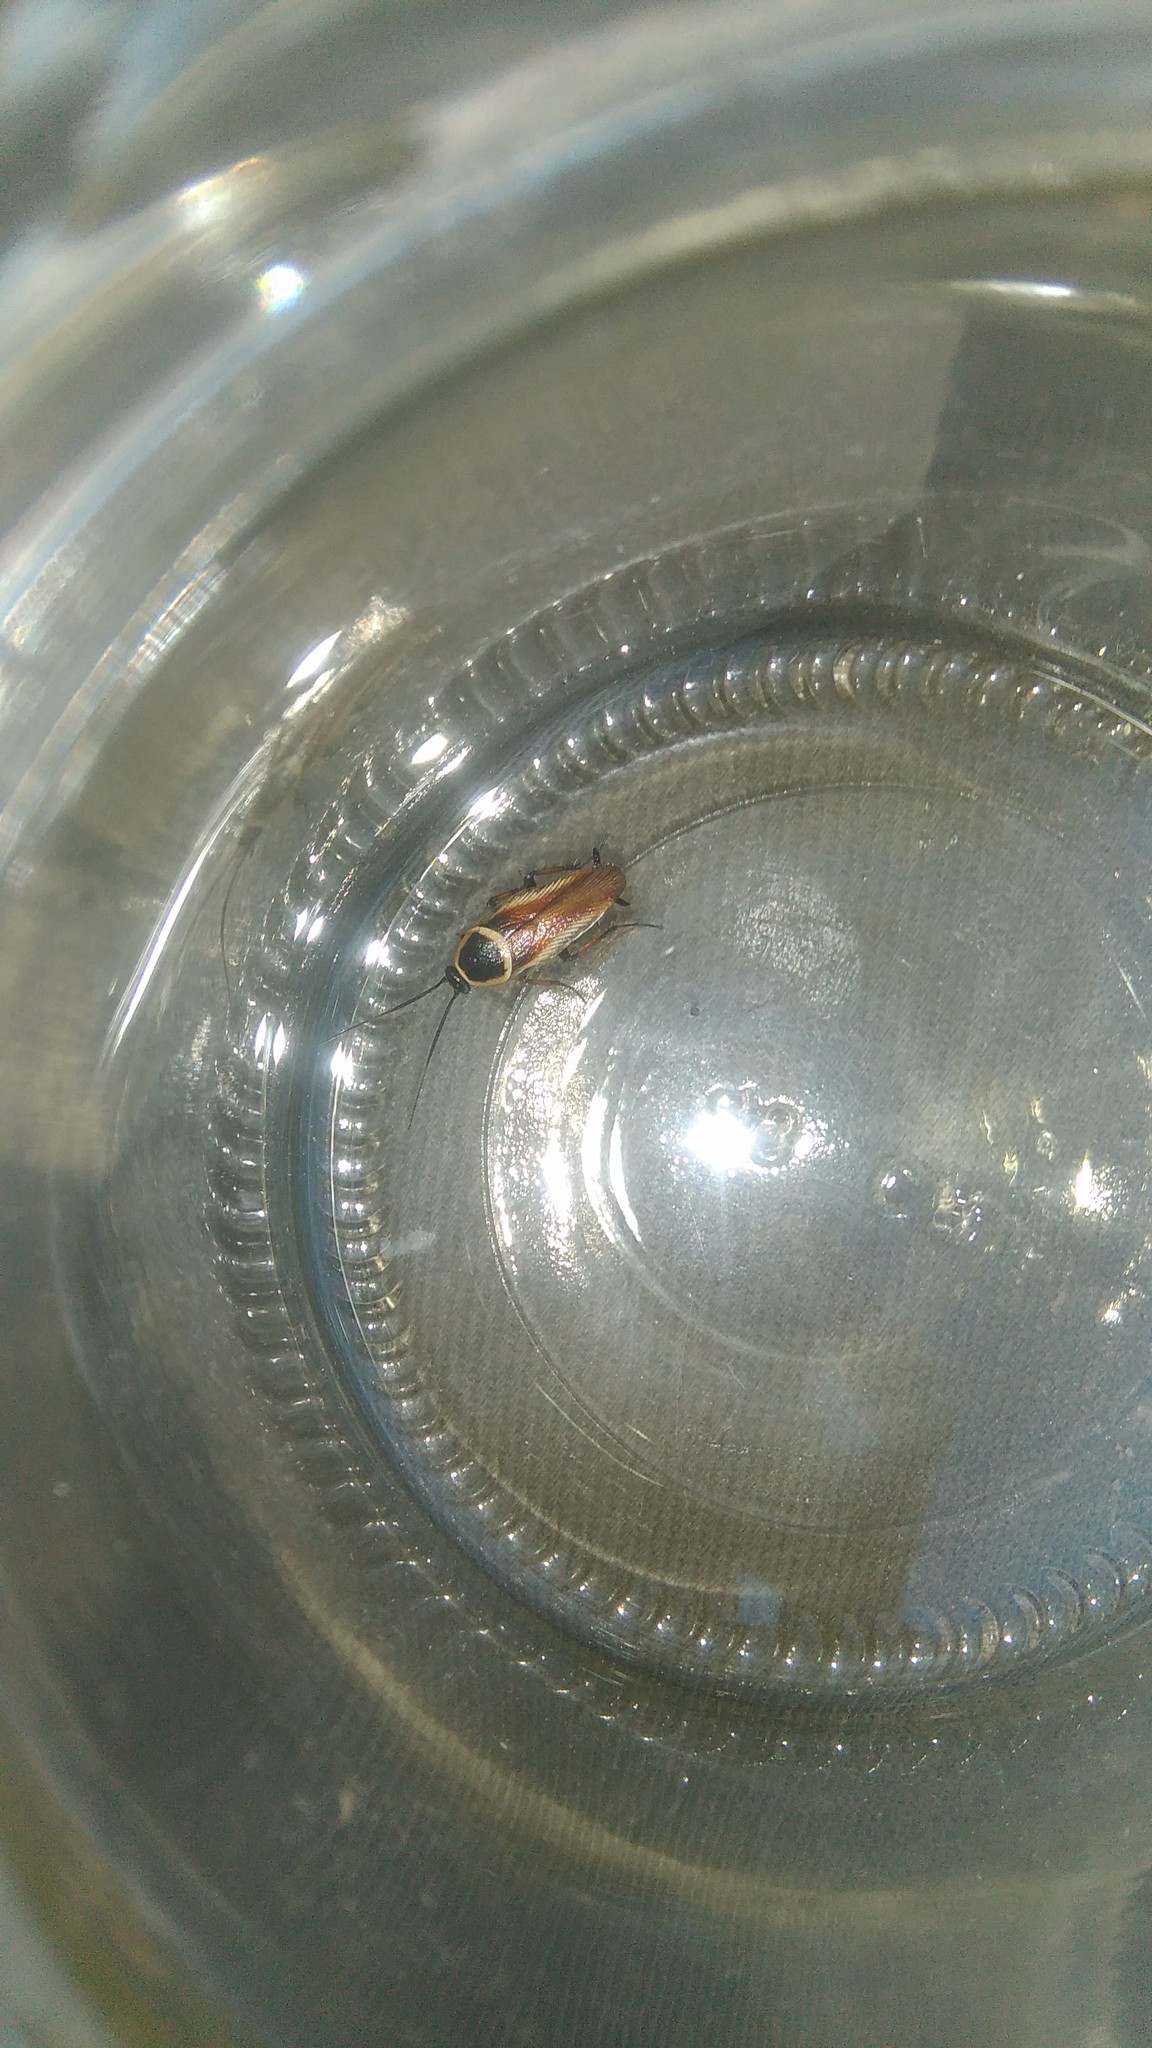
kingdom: Animalia
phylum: Arthropoda
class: Insecta
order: Blattodea
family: Ectobiidae
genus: Pseudomops
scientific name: Pseudomops neglectus
